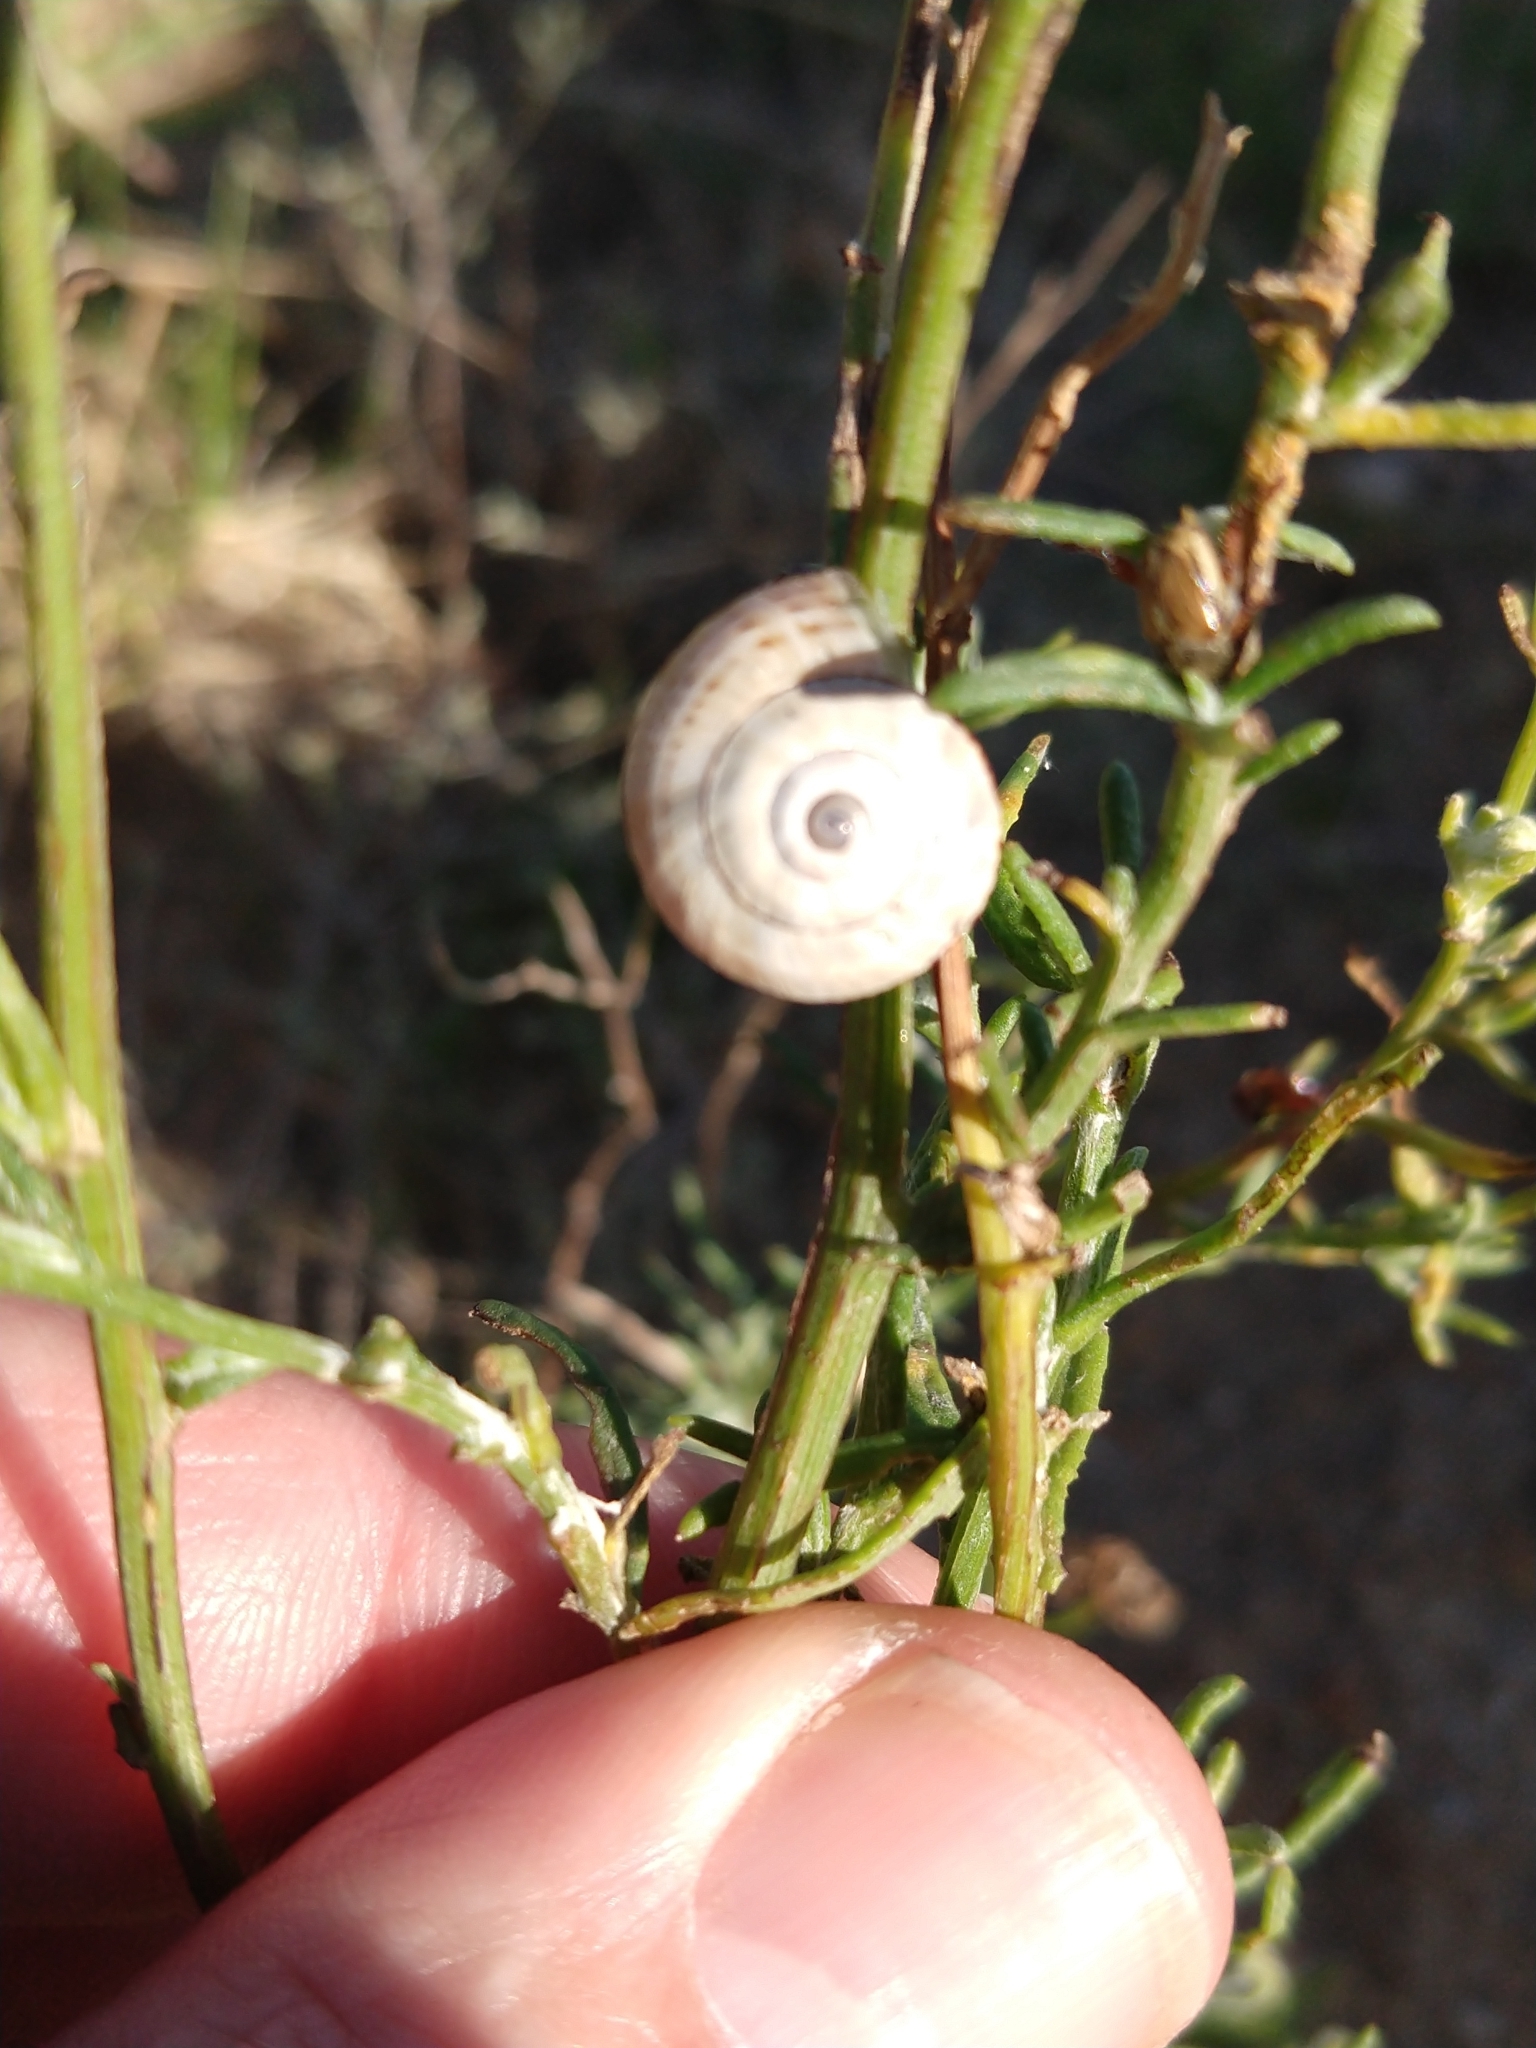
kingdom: Animalia
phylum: Mollusca
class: Gastropoda
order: Stylommatophora
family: Helicidae
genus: Theba
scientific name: Theba pisana
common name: White snail
